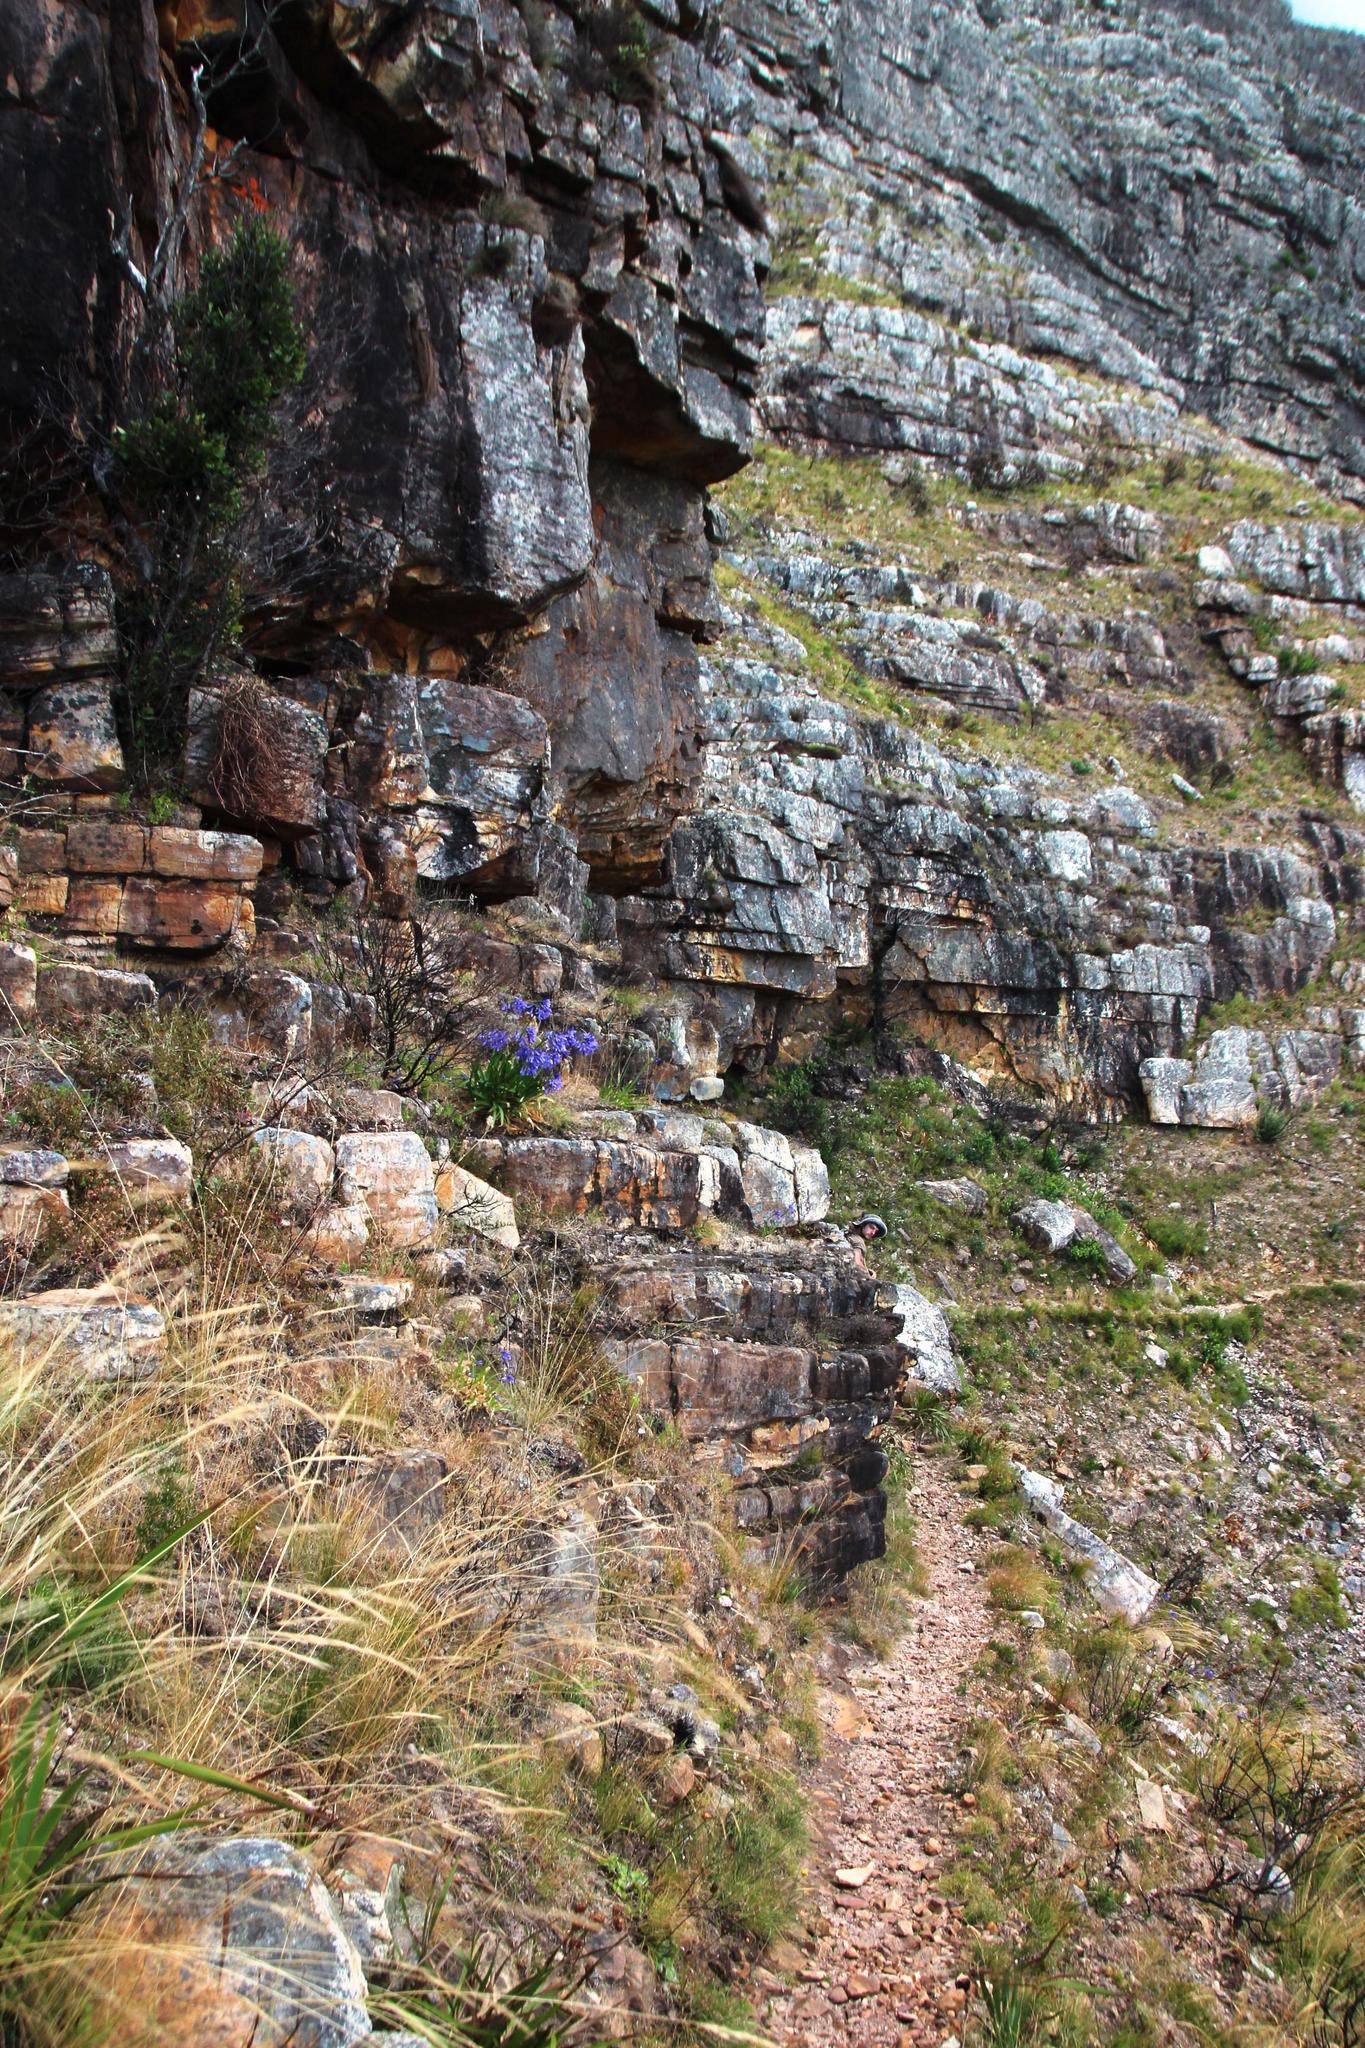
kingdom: Plantae
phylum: Tracheophyta
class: Liliopsida
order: Asparagales
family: Amaryllidaceae
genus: Agapanthus
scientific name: Agapanthus africanus
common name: Lily-of-the-nile
